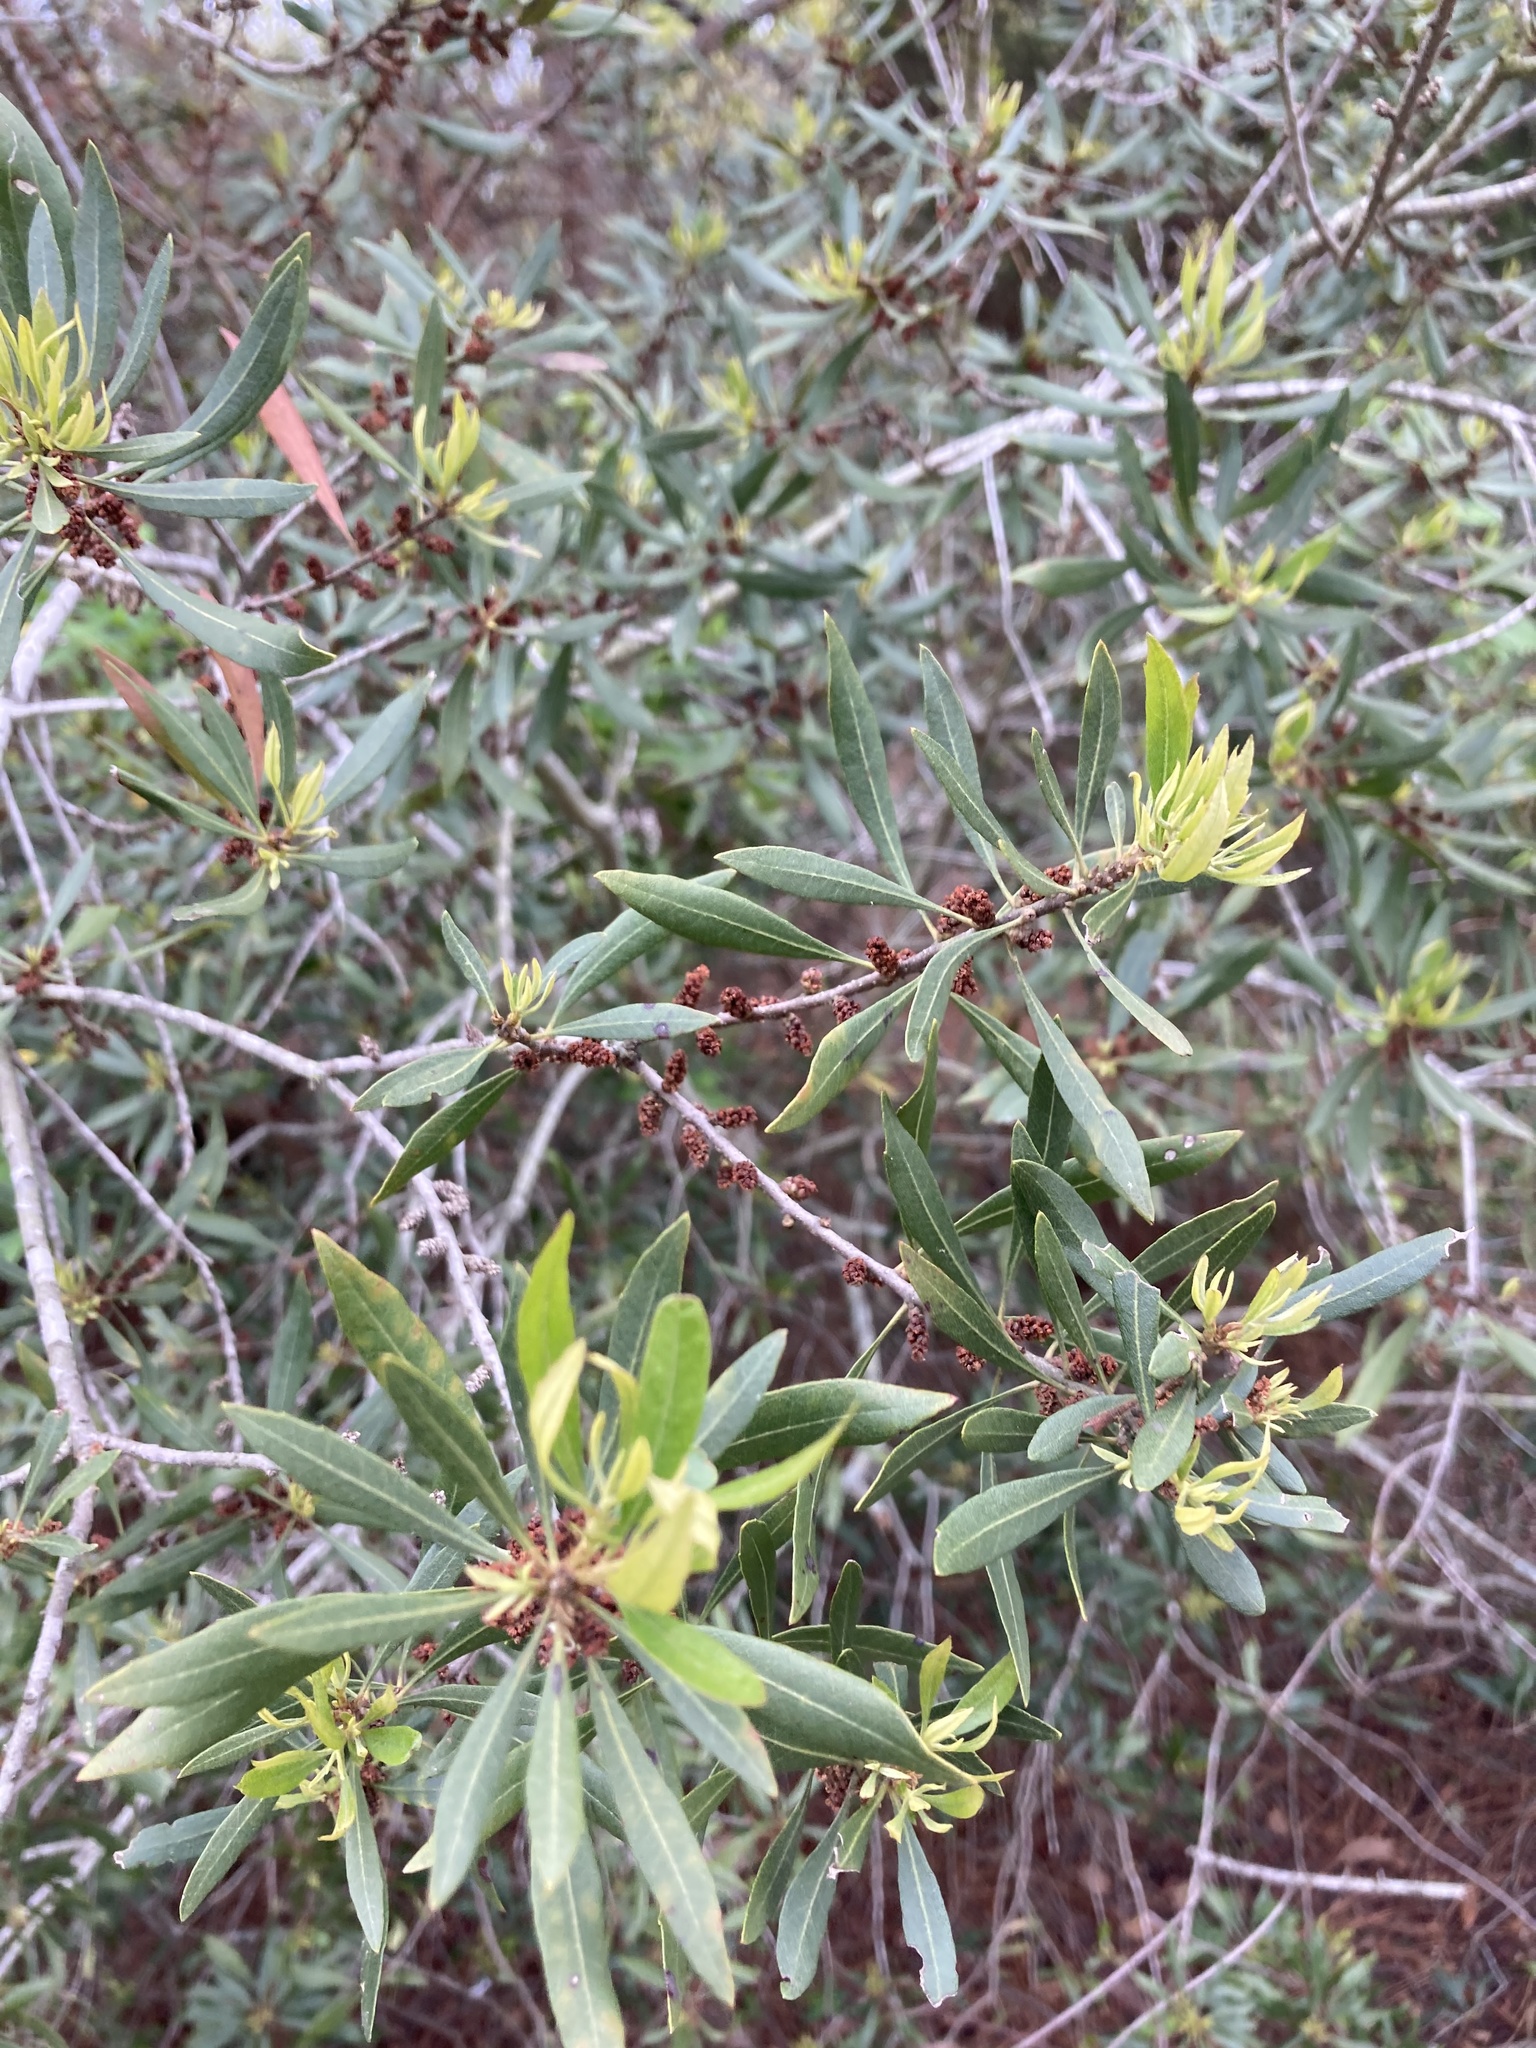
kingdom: Plantae
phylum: Tracheophyta
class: Magnoliopsida
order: Fagales
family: Myricaceae
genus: Morella
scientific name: Morella cerifera
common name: Wax myrtle
